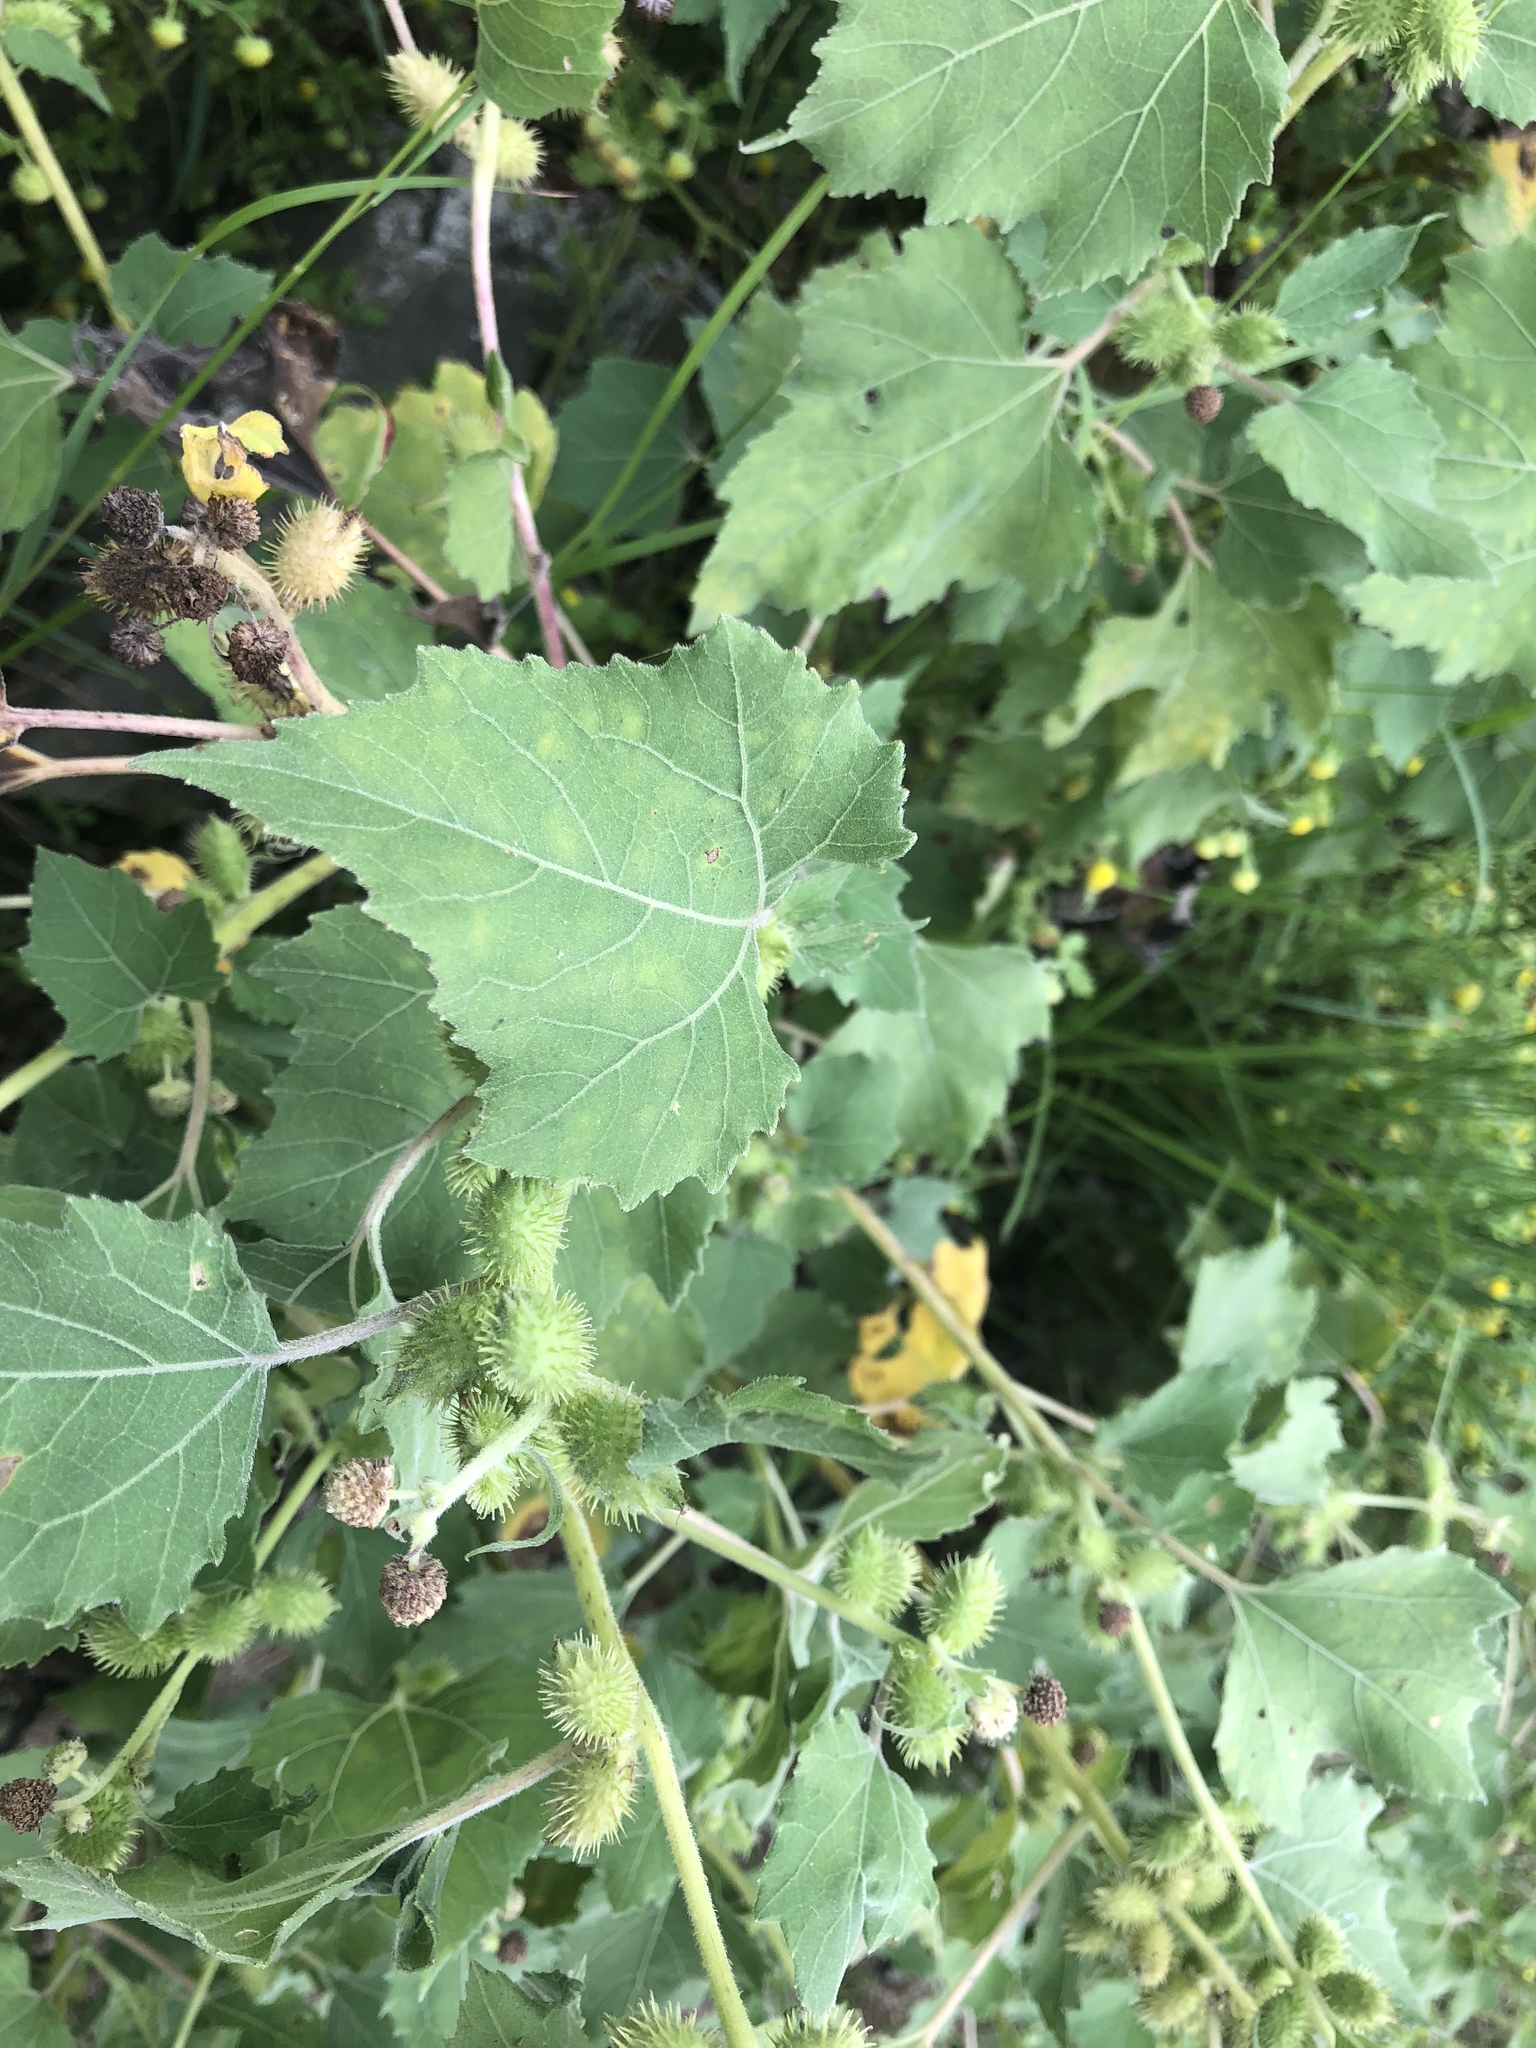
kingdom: Plantae
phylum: Tracheophyta
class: Magnoliopsida
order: Asterales
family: Asteraceae
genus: Xanthium
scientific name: Xanthium strumarium
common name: Rough cocklebur
